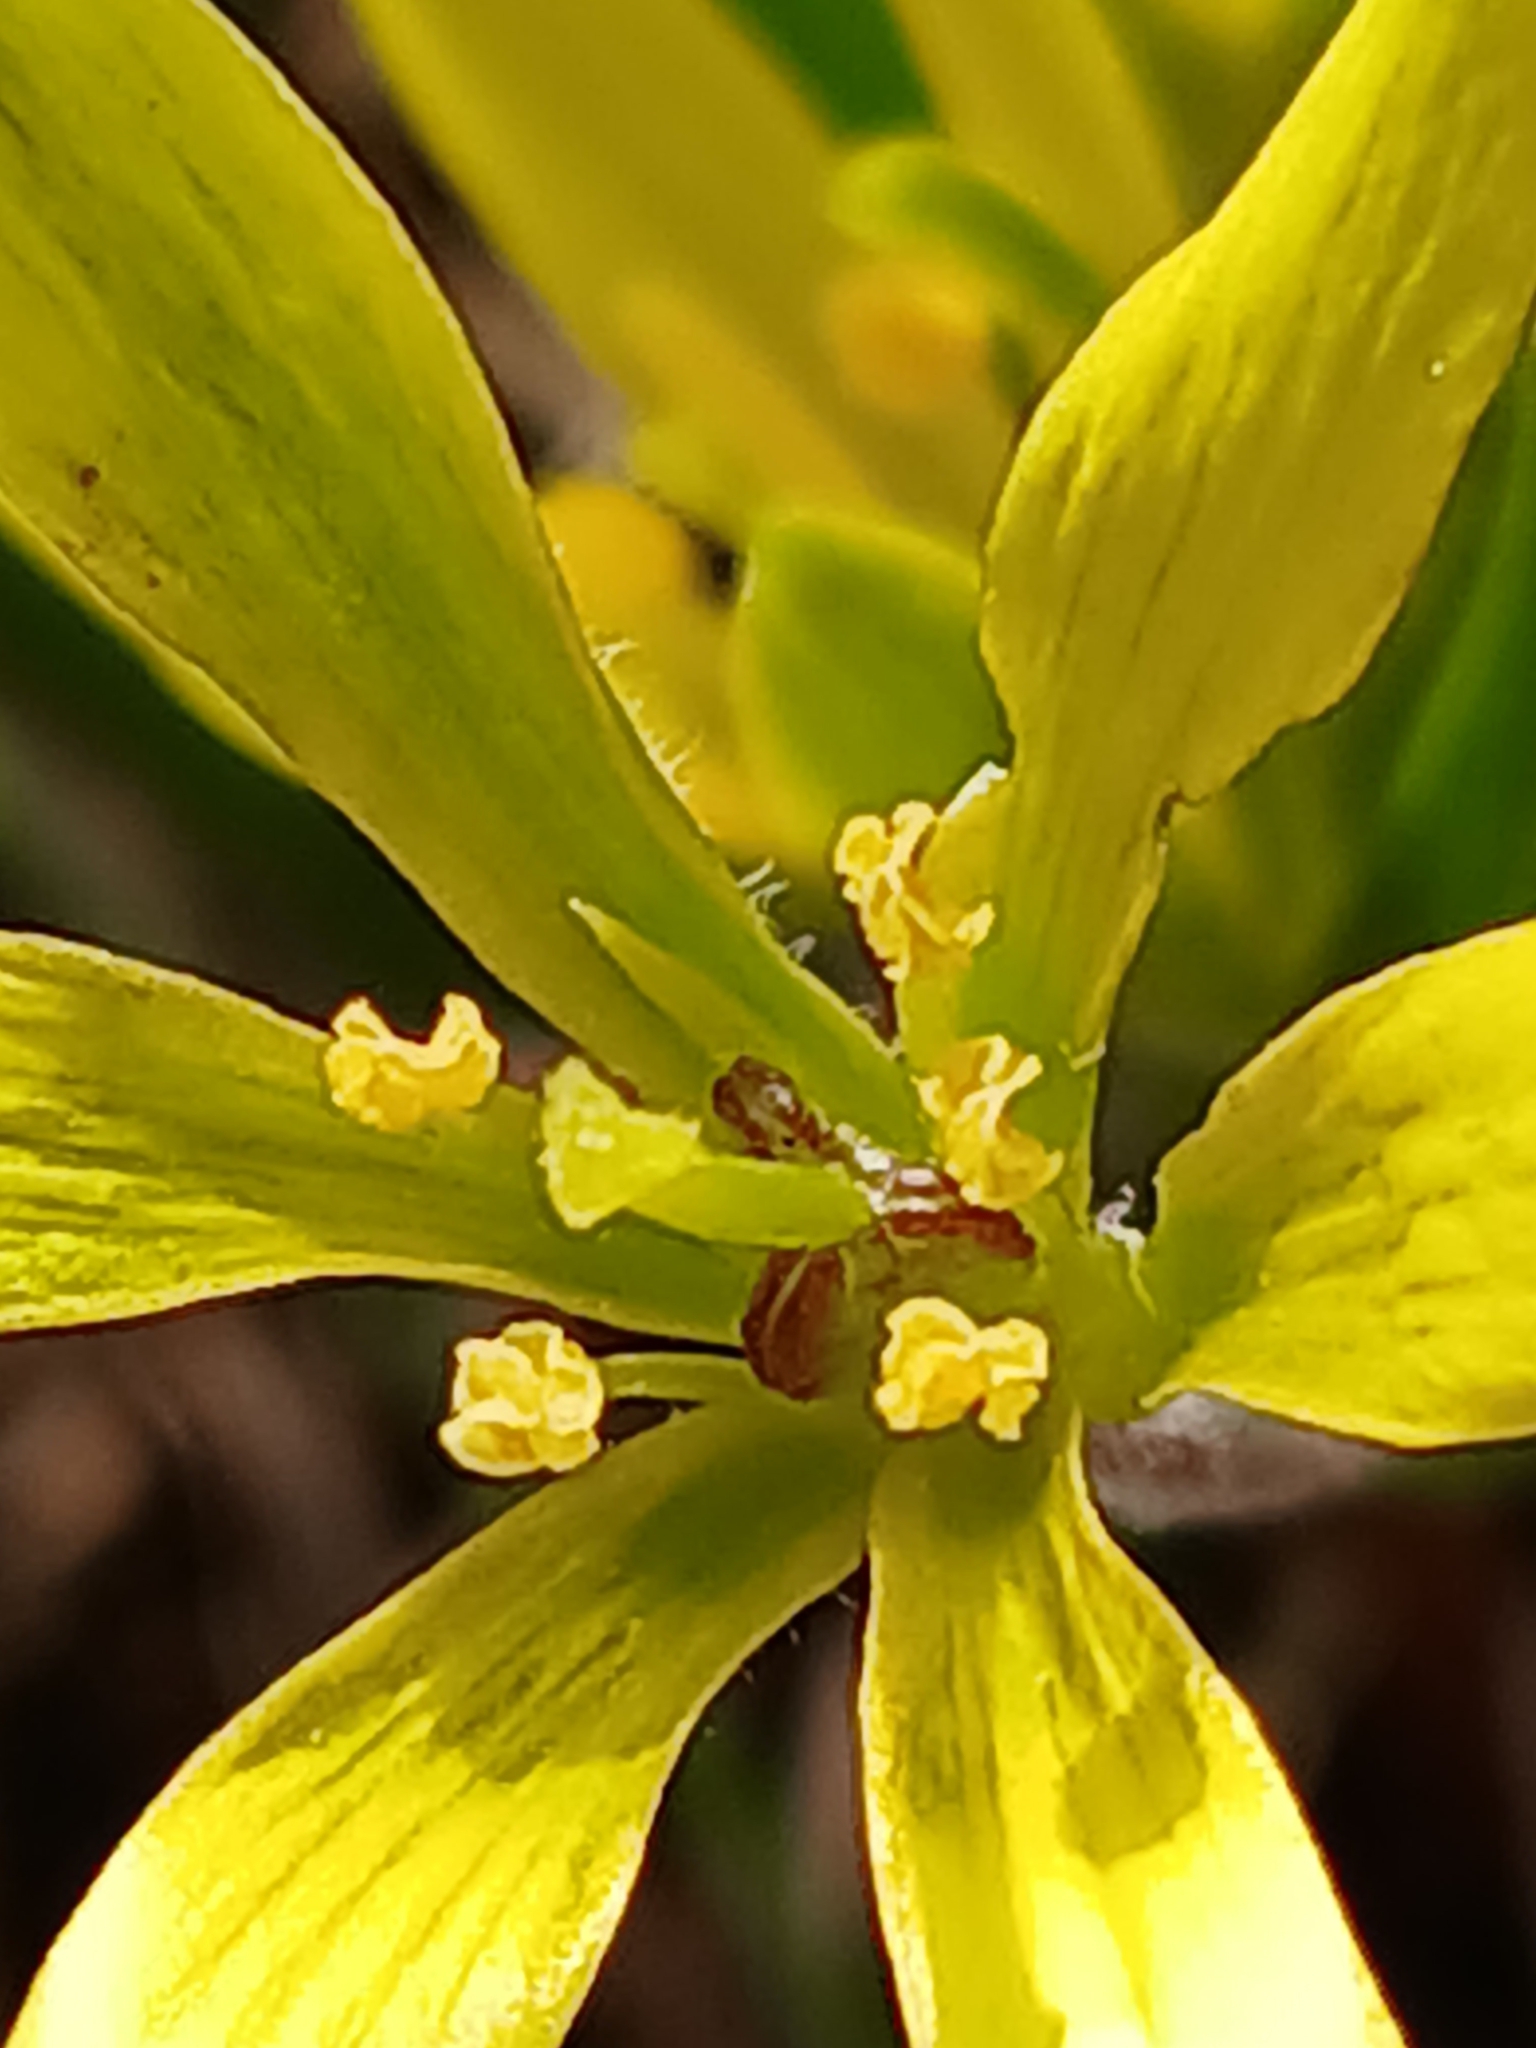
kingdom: Plantae
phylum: Tracheophyta
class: Liliopsida
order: Liliales
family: Liliaceae
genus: Gagea
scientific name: Gagea villosa
